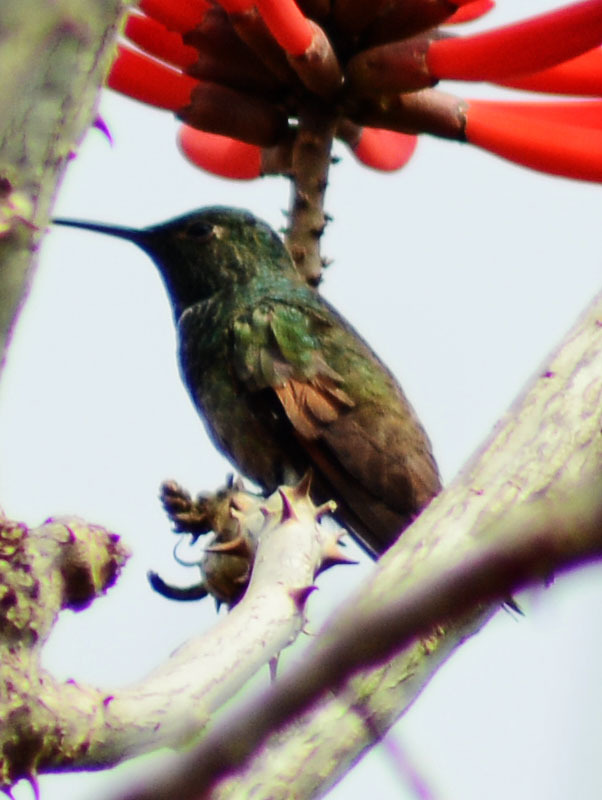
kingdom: Animalia
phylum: Chordata
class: Aves
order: Apodiformes
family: Trochilidae
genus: Saucerottia
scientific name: Saucerottia beryllina
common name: Berylline hummingbird
